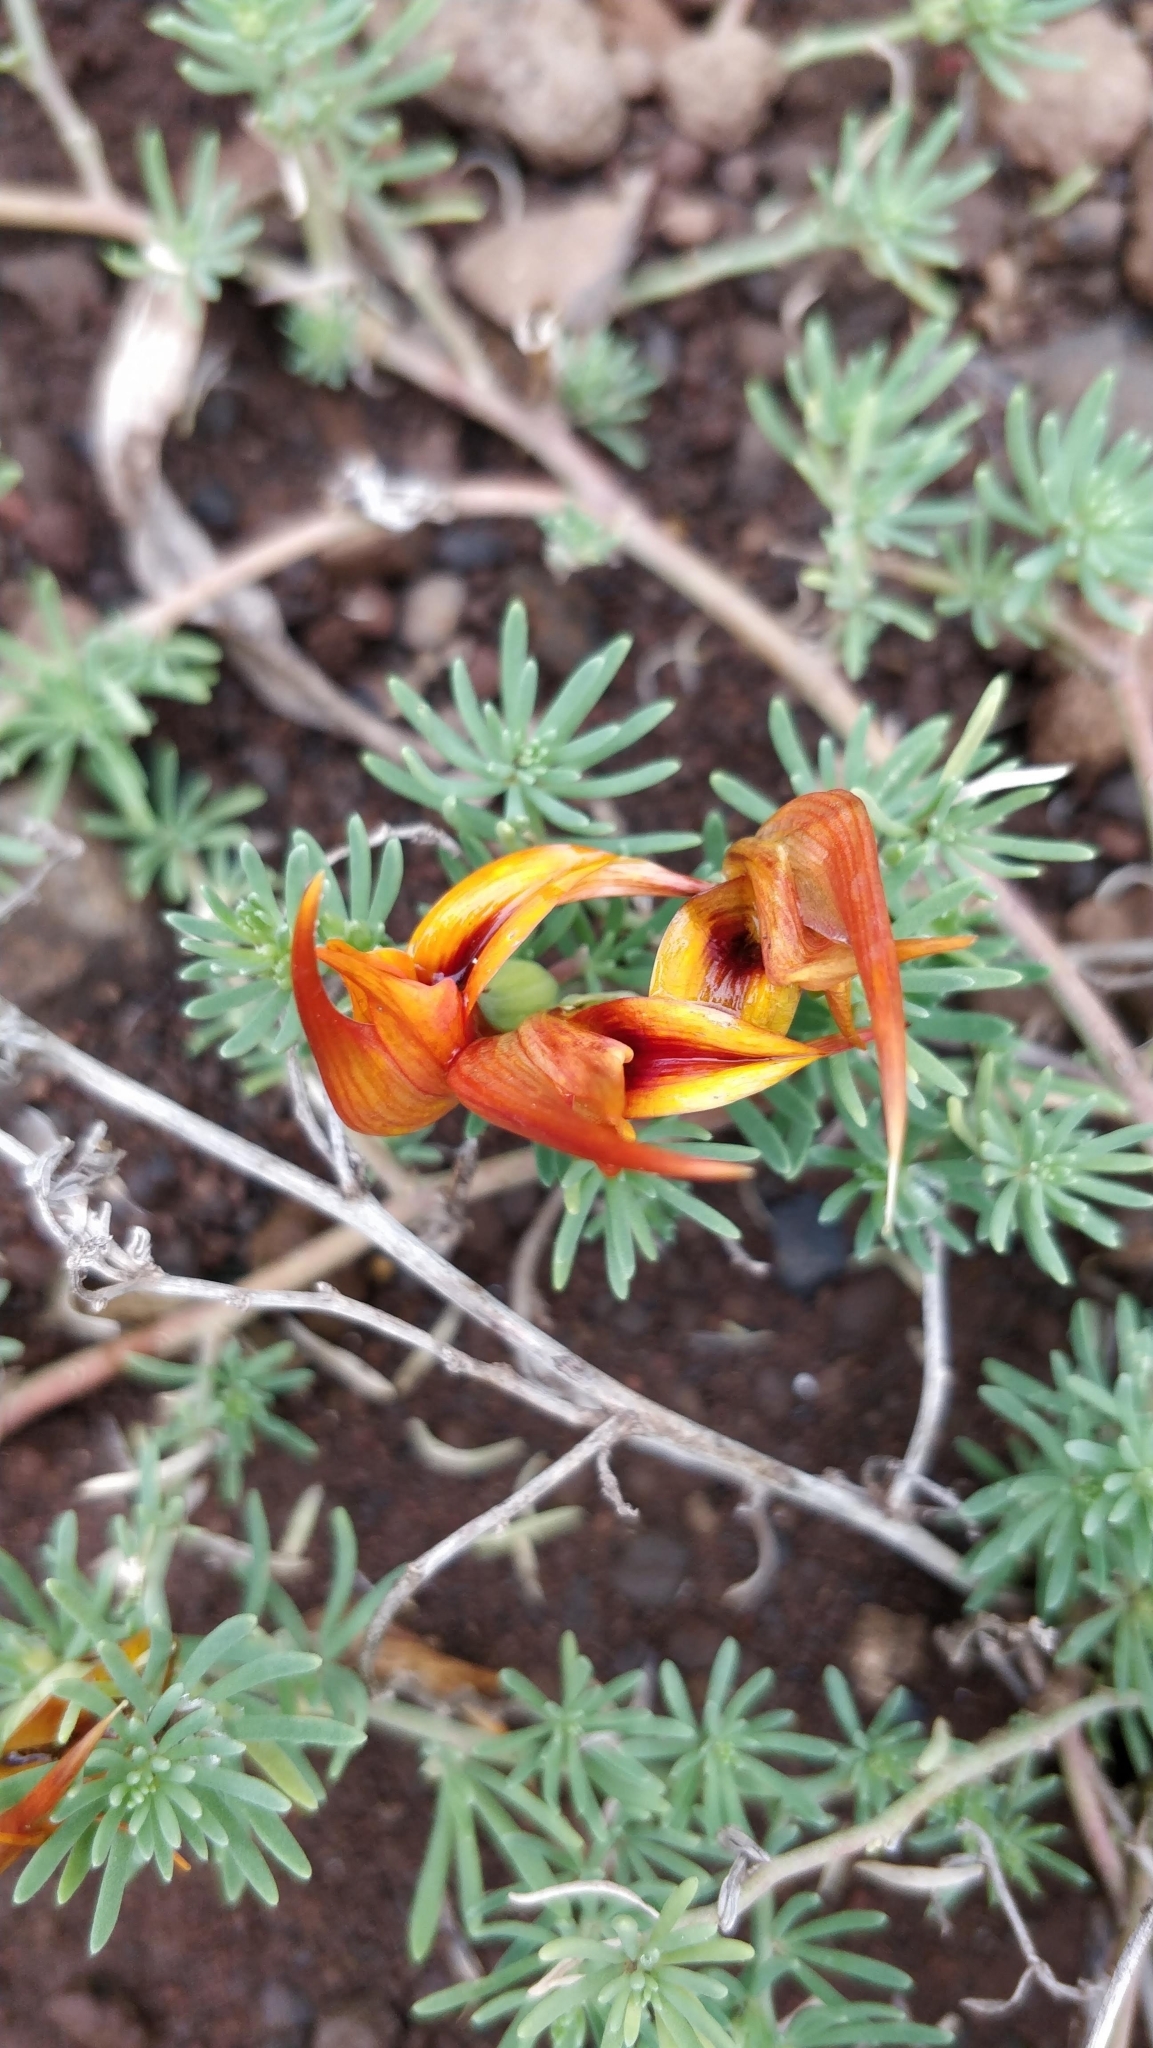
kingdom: Plantae
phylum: Tracheophyta
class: Magnoliopsida
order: Fabales
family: Fabaceae
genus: Lotus
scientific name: Lotus maculatus
